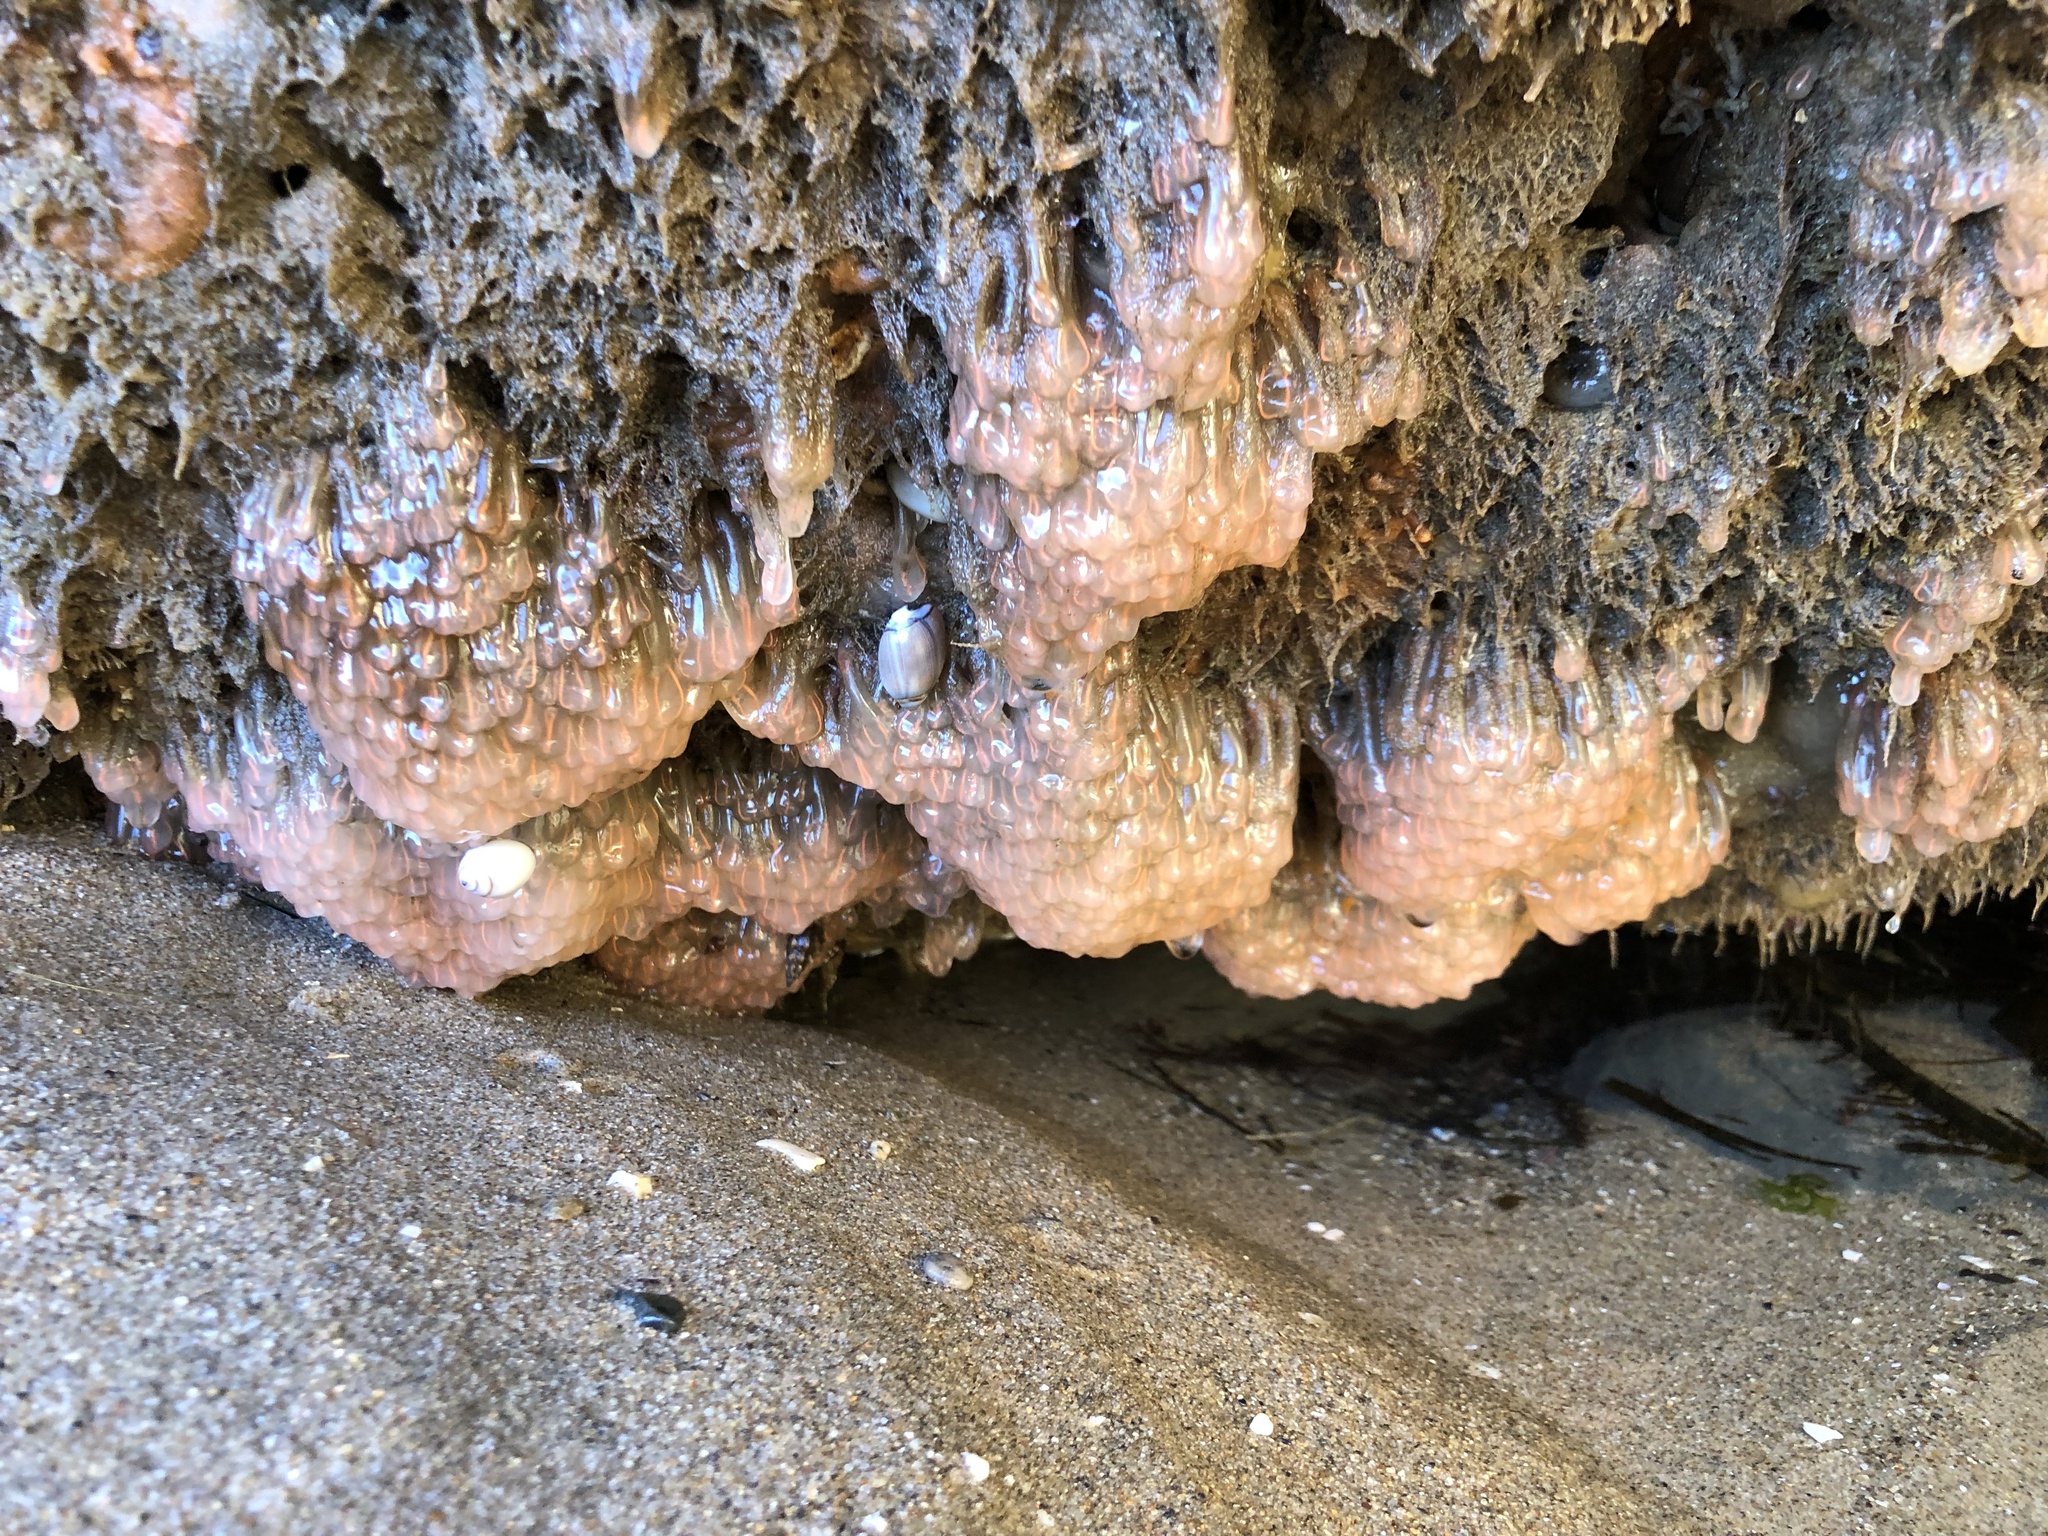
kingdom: Animalia
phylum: Chordata
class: Ascidiacea
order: Aplousobranchia
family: Clavelinidae
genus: Clavelina
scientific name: Clavelina huntsmani
